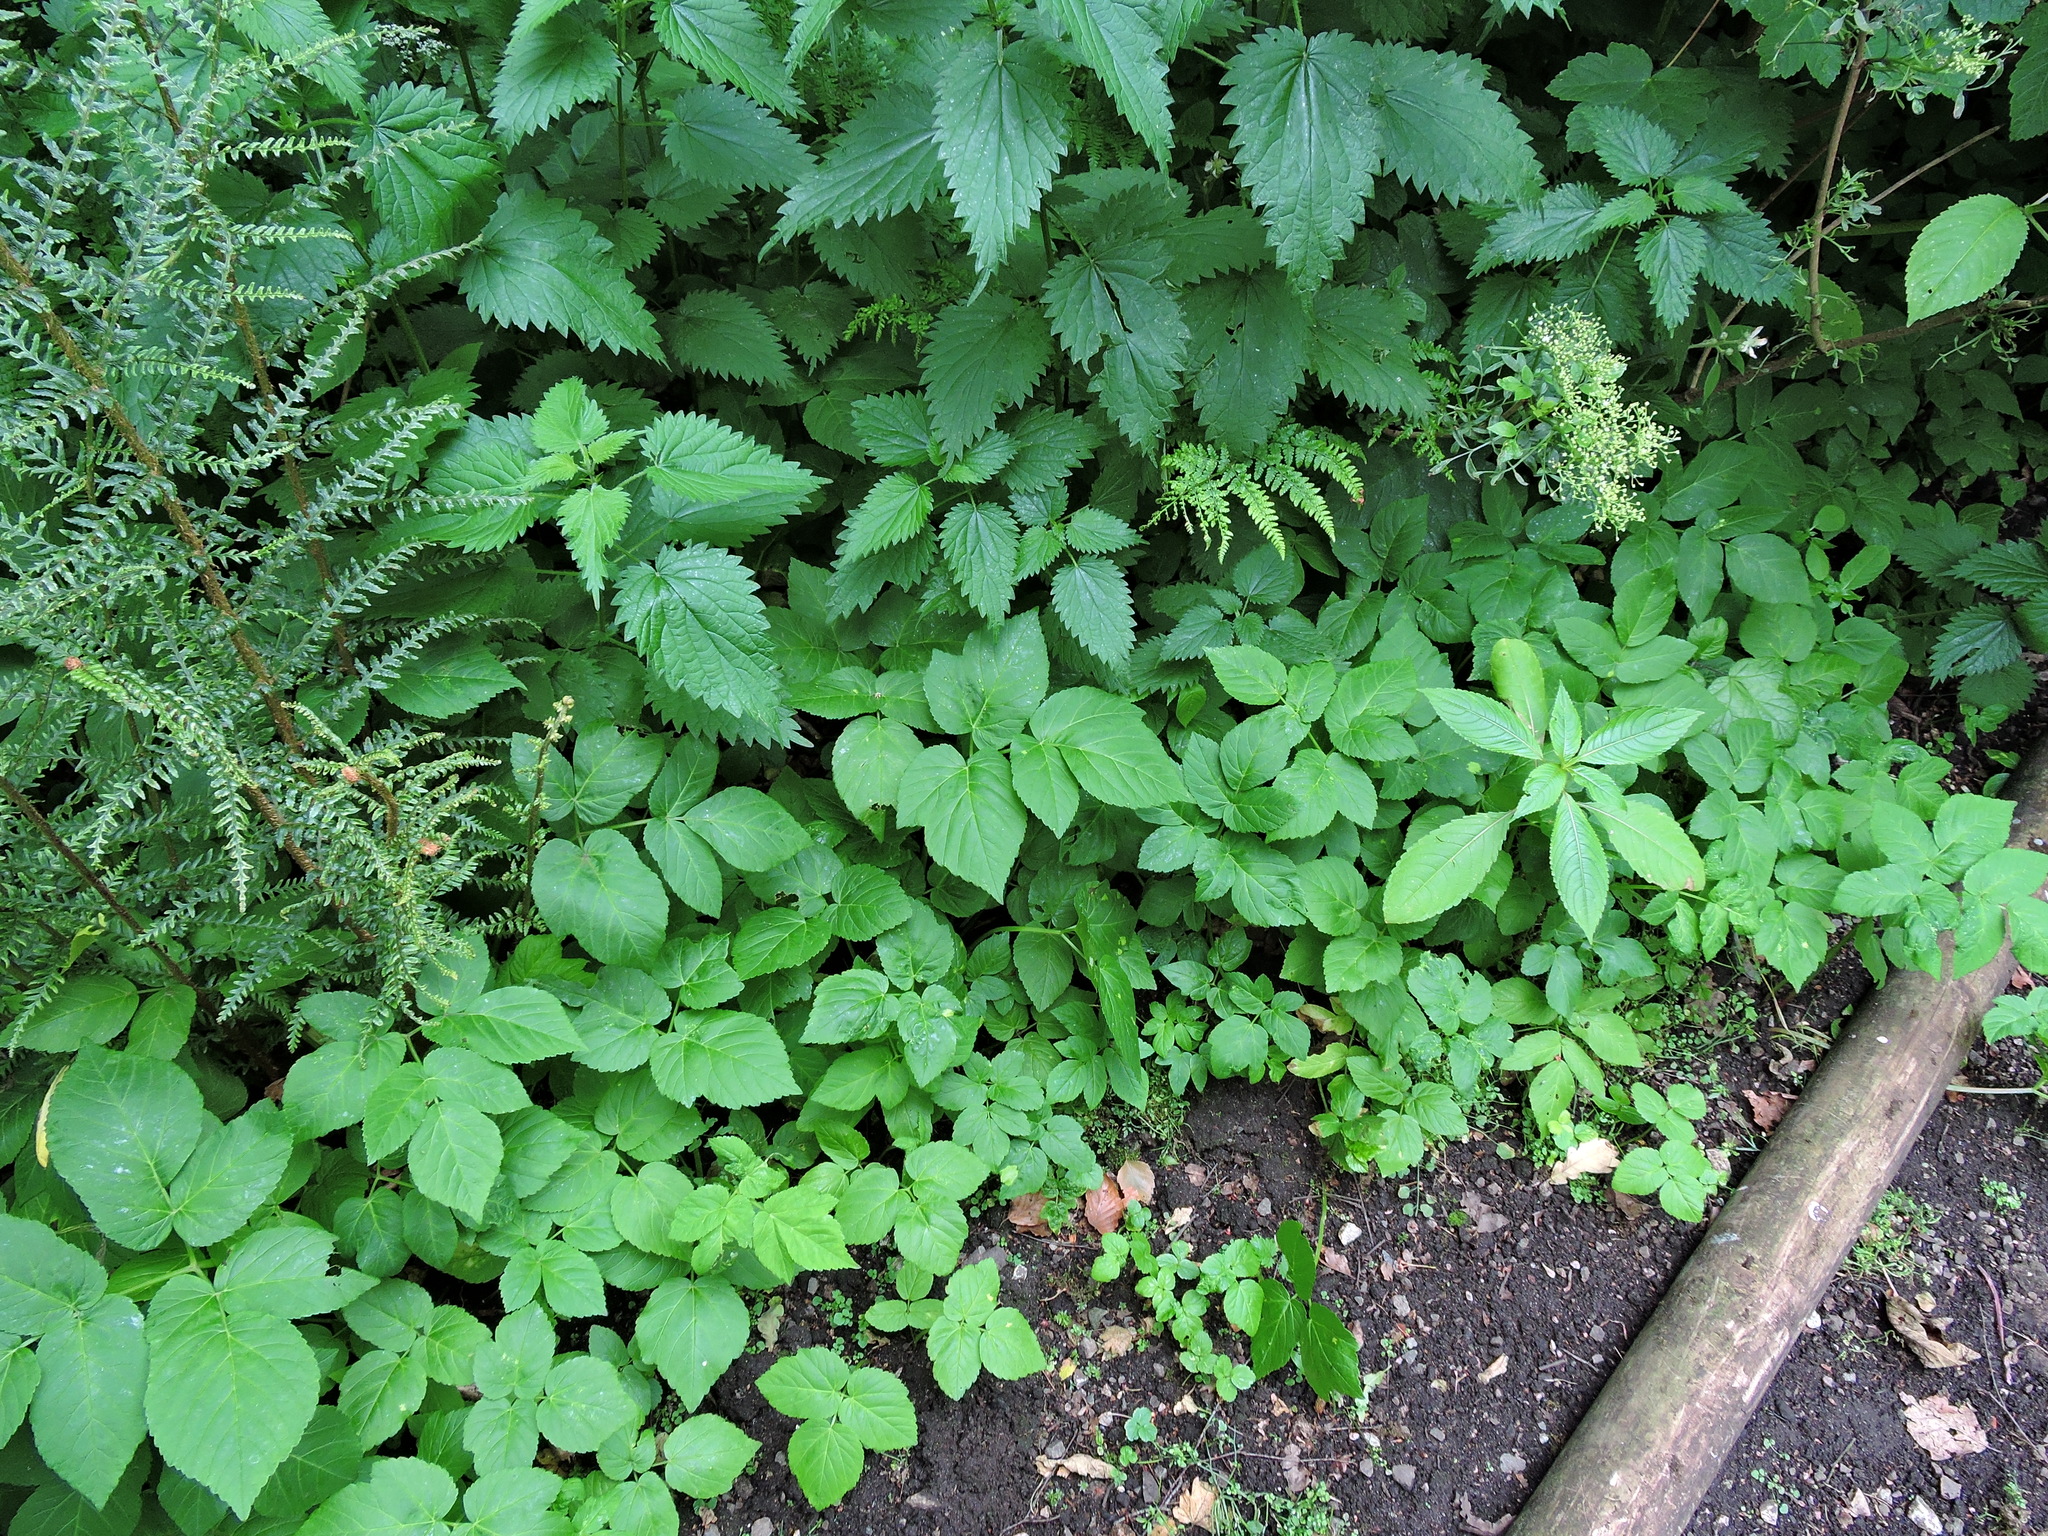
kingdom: Plantae
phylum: Tracheophyta
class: Magnoliopsida
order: Apiales
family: Apiaceae
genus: Aegopodium
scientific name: Aegopodium podagraria
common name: Ground-elder
